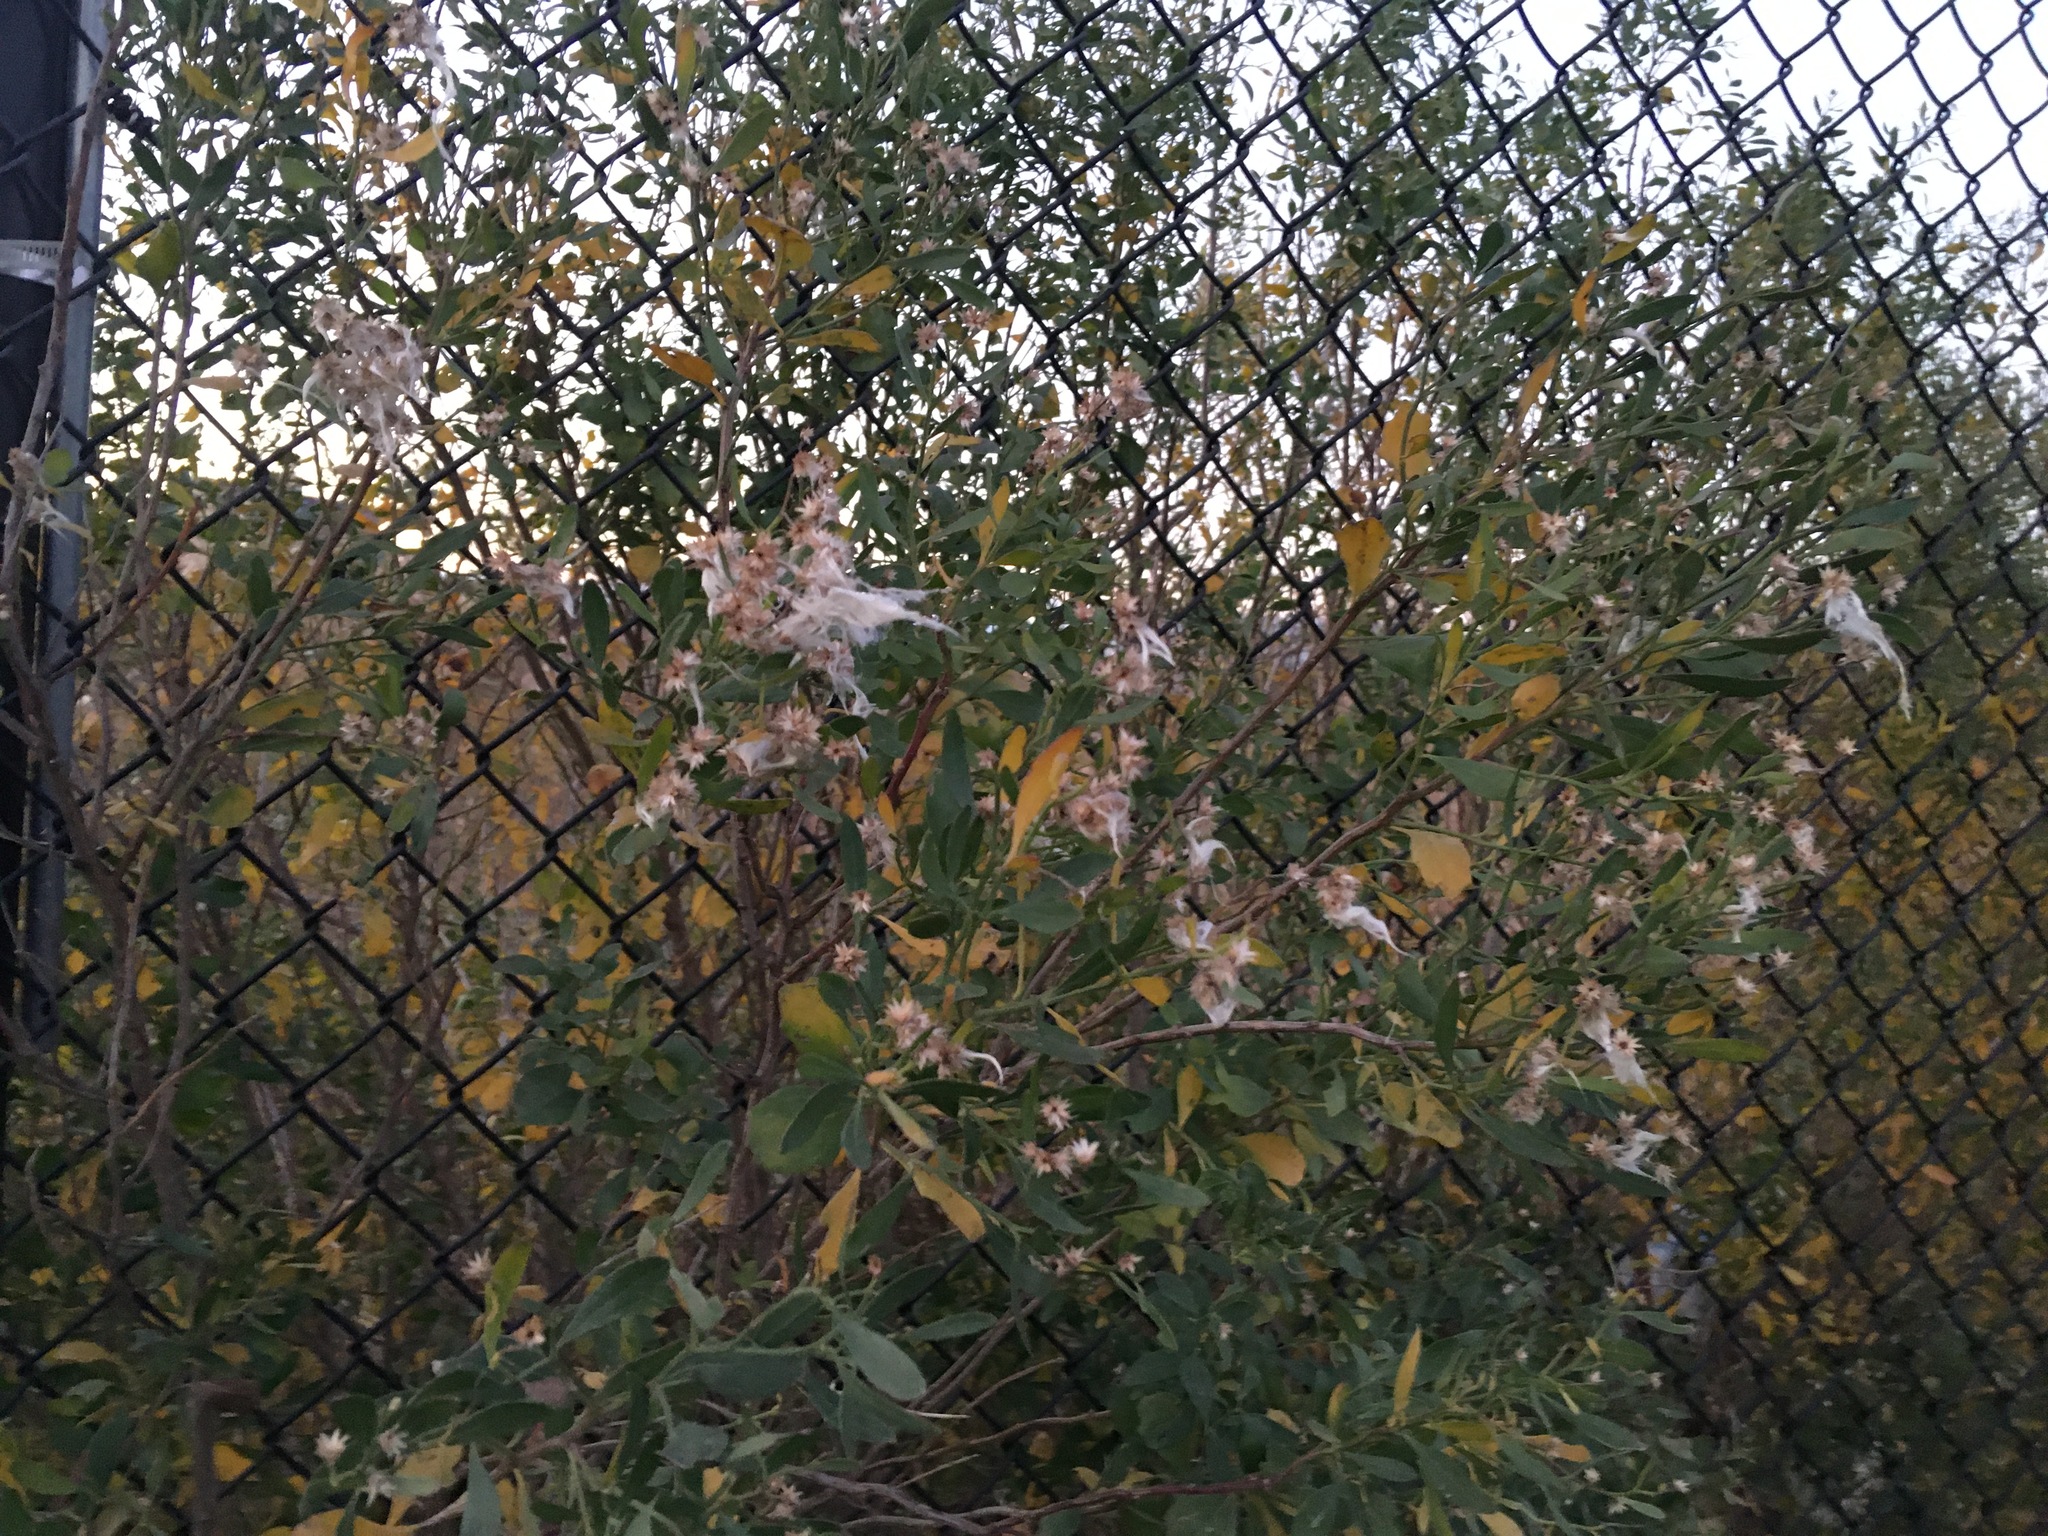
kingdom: Plantae
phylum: Tracheophyta
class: Magnoliopsida
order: Asterales
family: Asteraceae
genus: Baccharis
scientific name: Baccharis halimifolia
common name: Eastern baccharis
